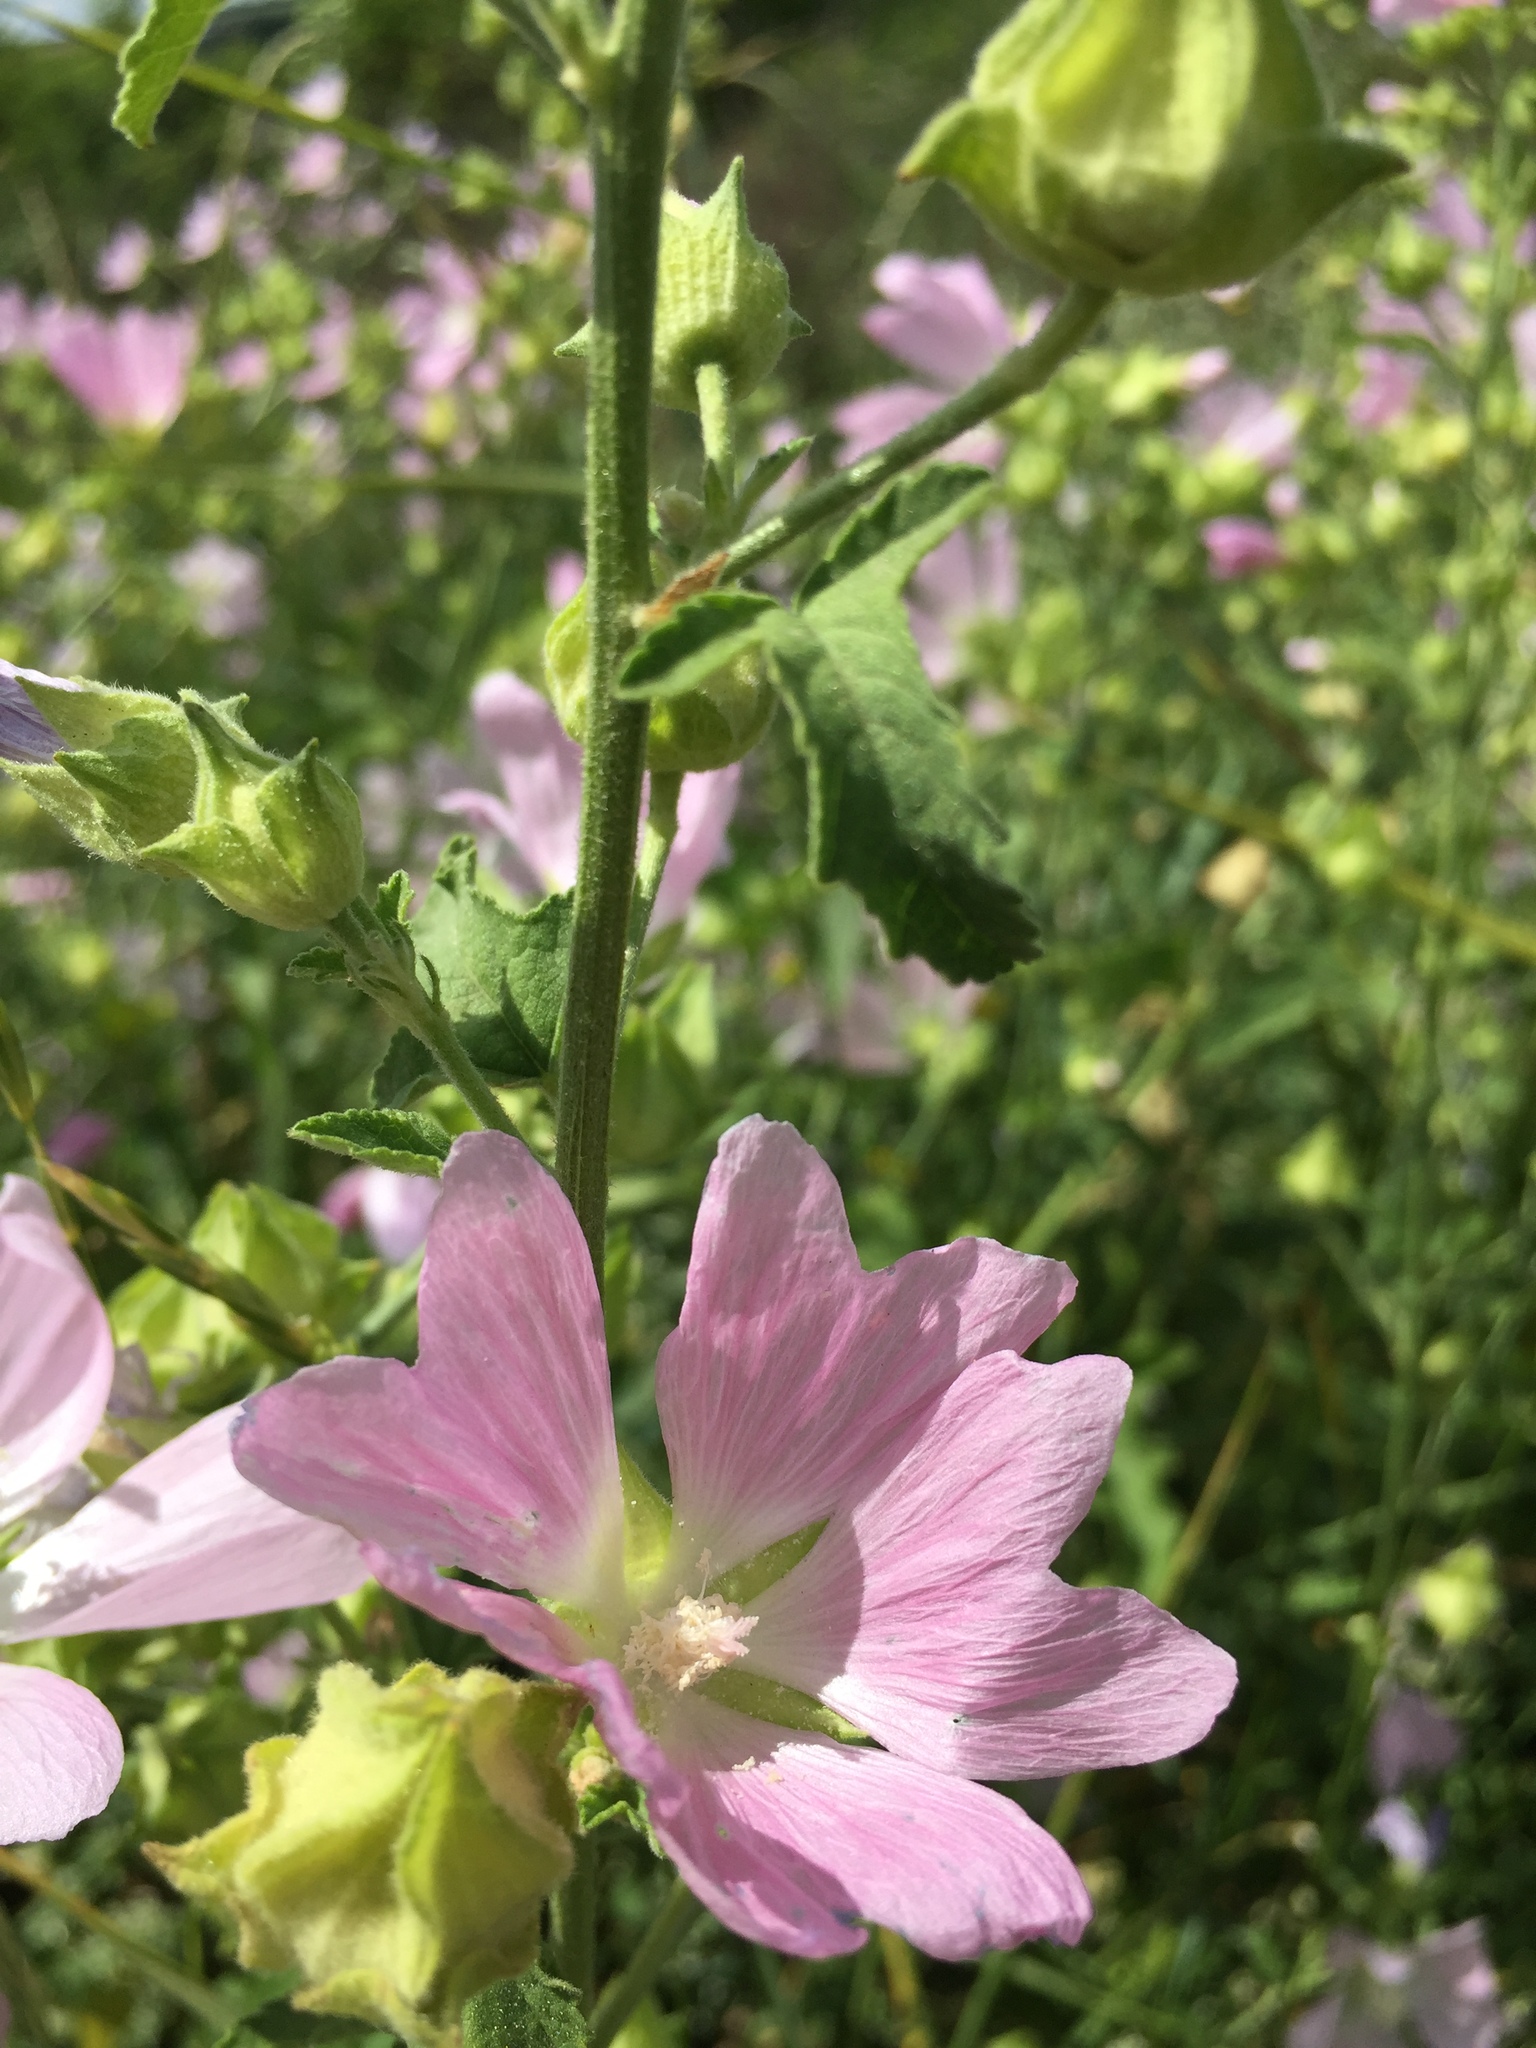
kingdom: Plantae
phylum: Tracheophyta
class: Magnoliopsida
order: Malvales
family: Malvaceae
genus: Malva
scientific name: Malva thuringiaca
